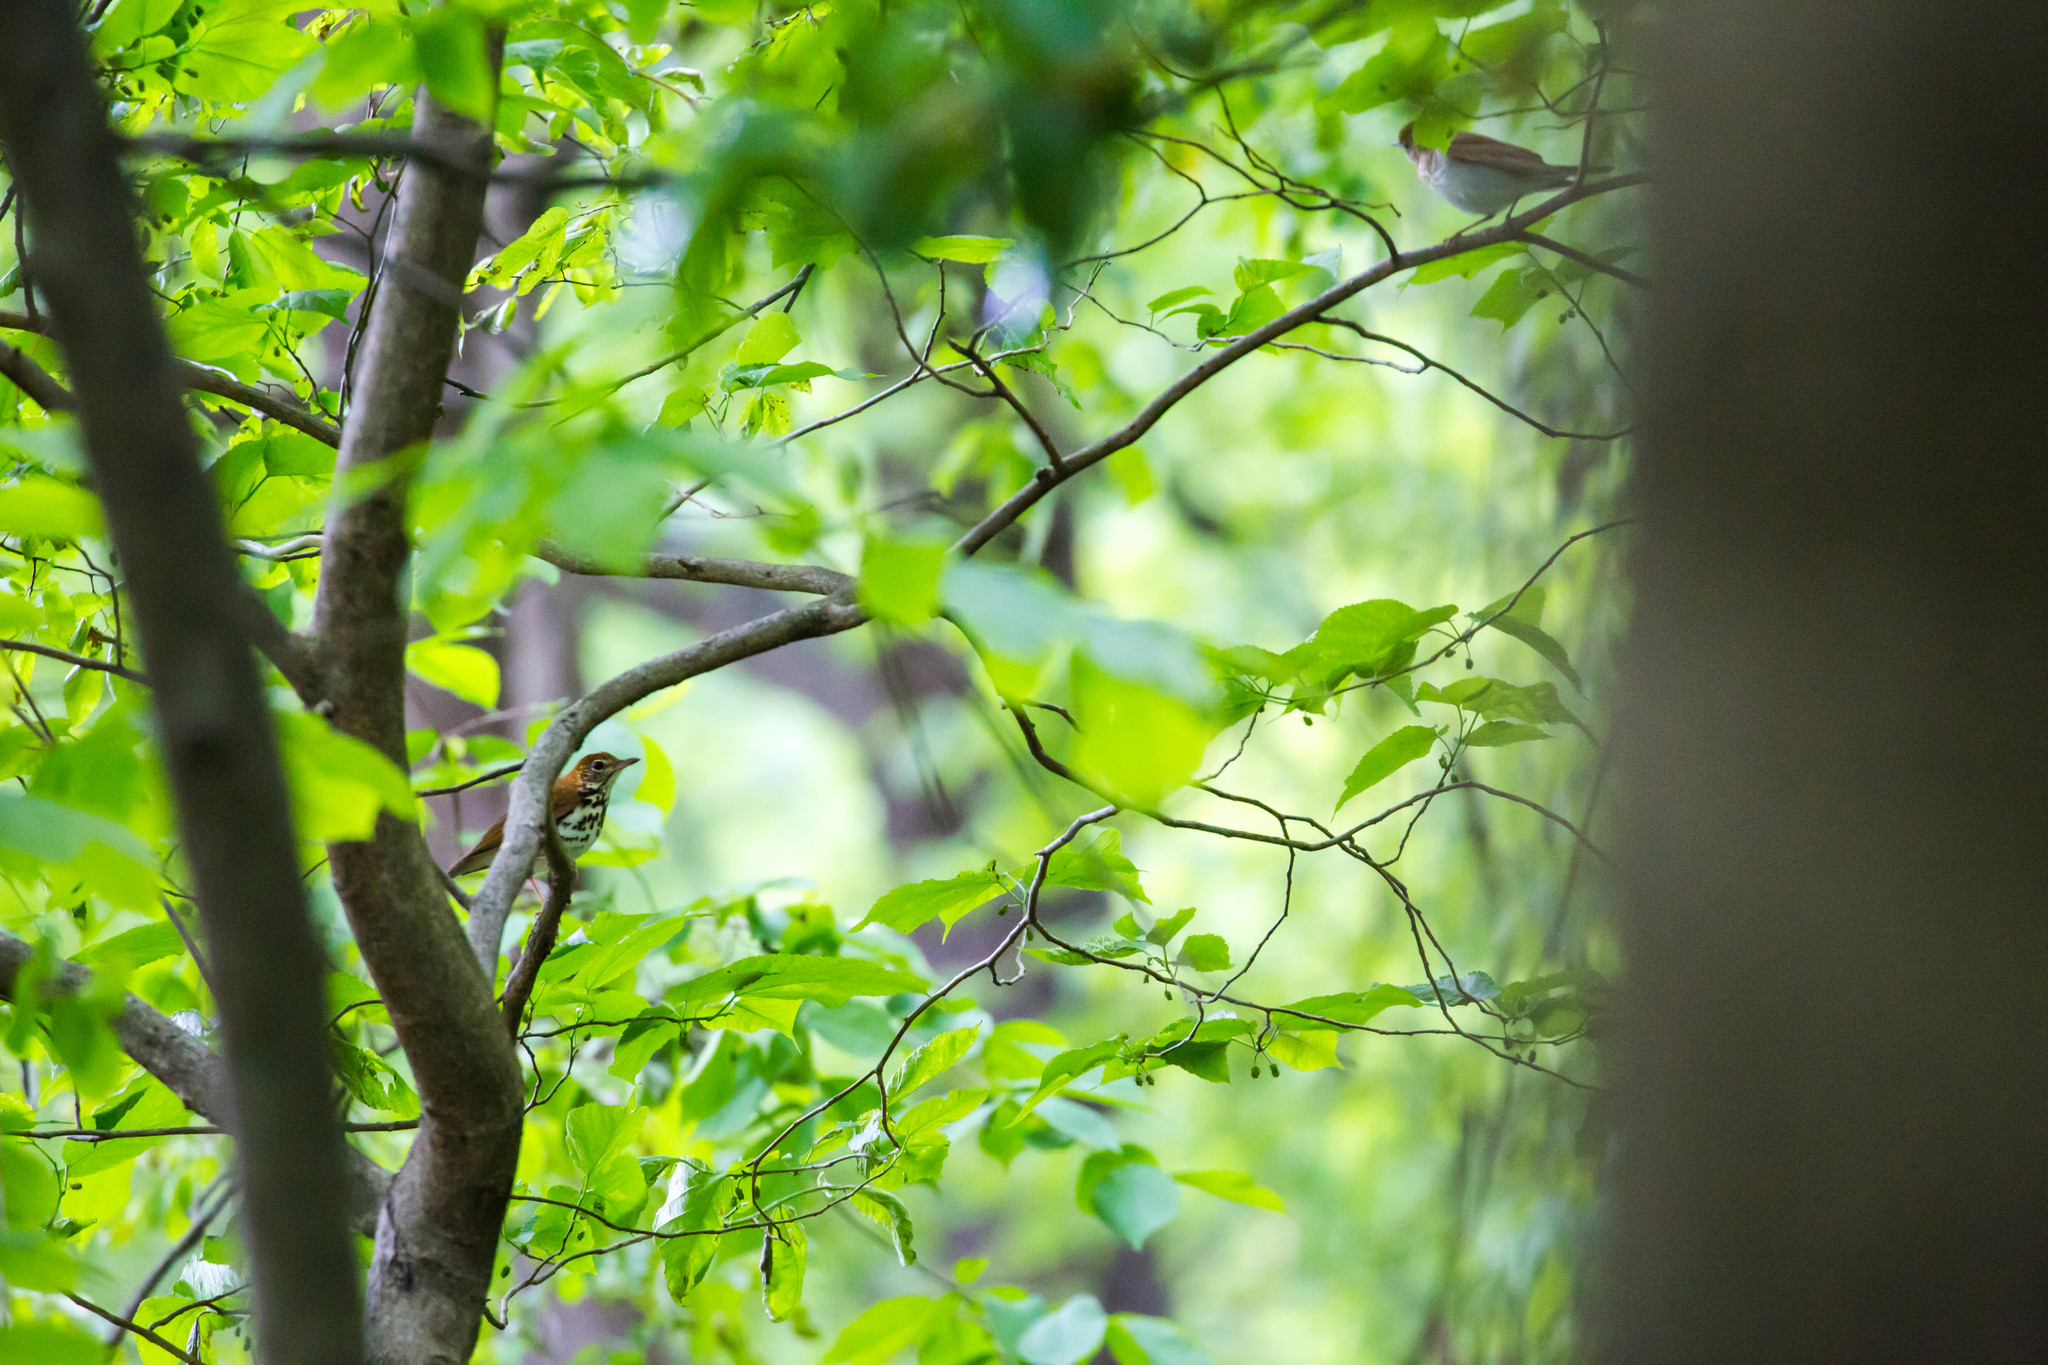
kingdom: Animalia
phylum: Chordata
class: Aves
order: Passeriformes
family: Turdidae
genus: Hylocichla
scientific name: Hylocichla mustelina
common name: Wood thrush
